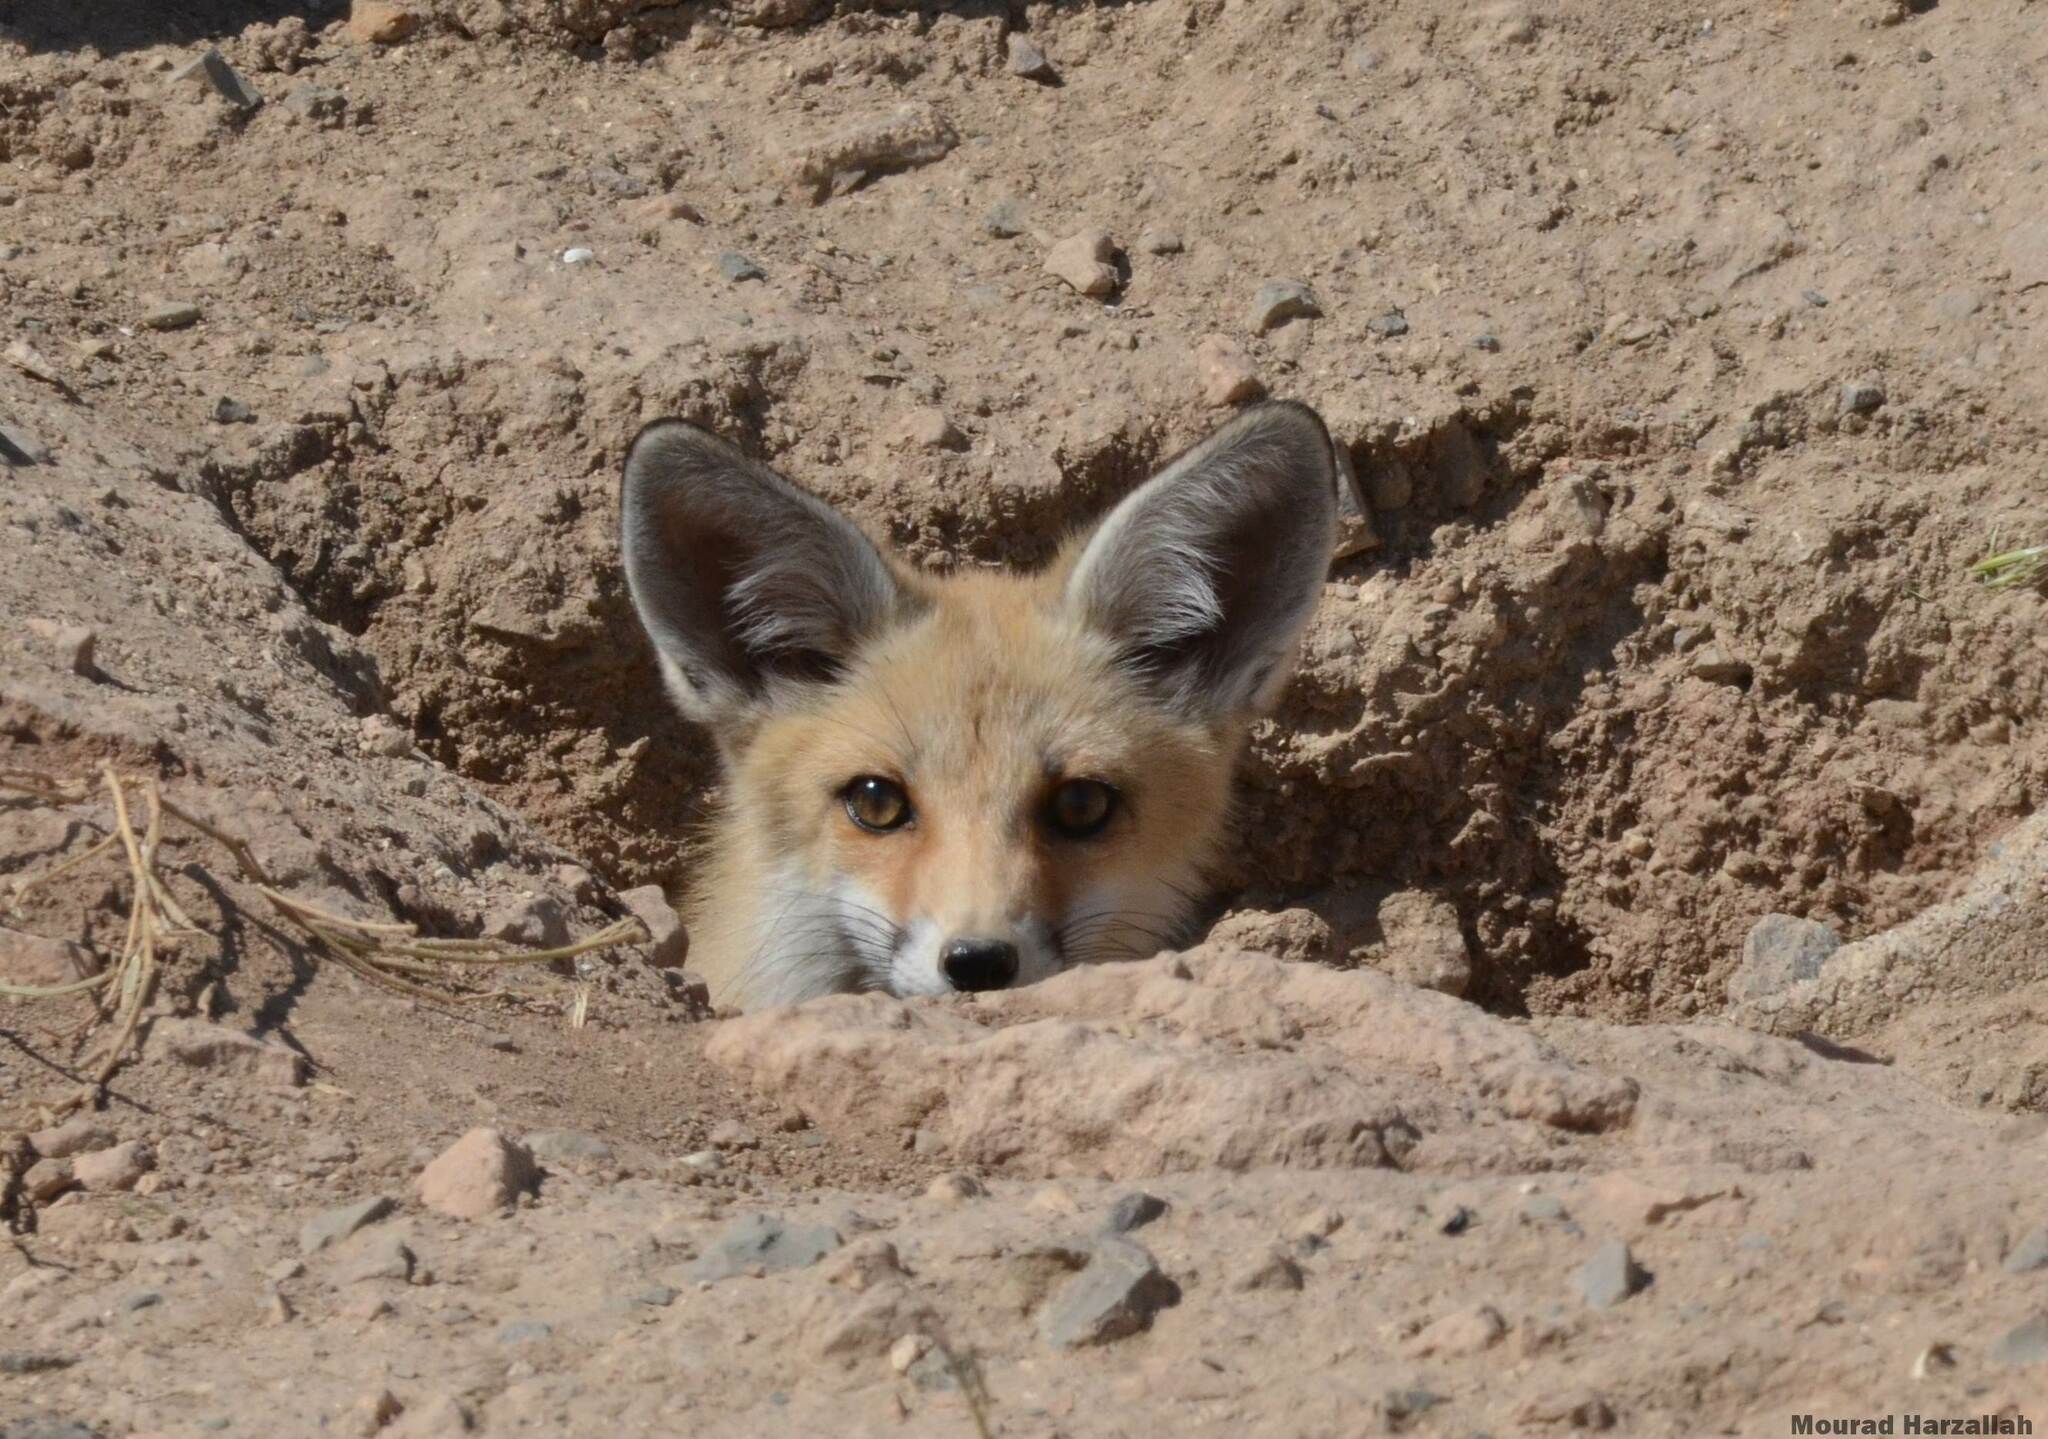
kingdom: Animalia
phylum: Chordata
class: Mammalia
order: Carnivora
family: Canidae
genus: Vulpes
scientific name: Vulpes vulpes
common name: Red fox
